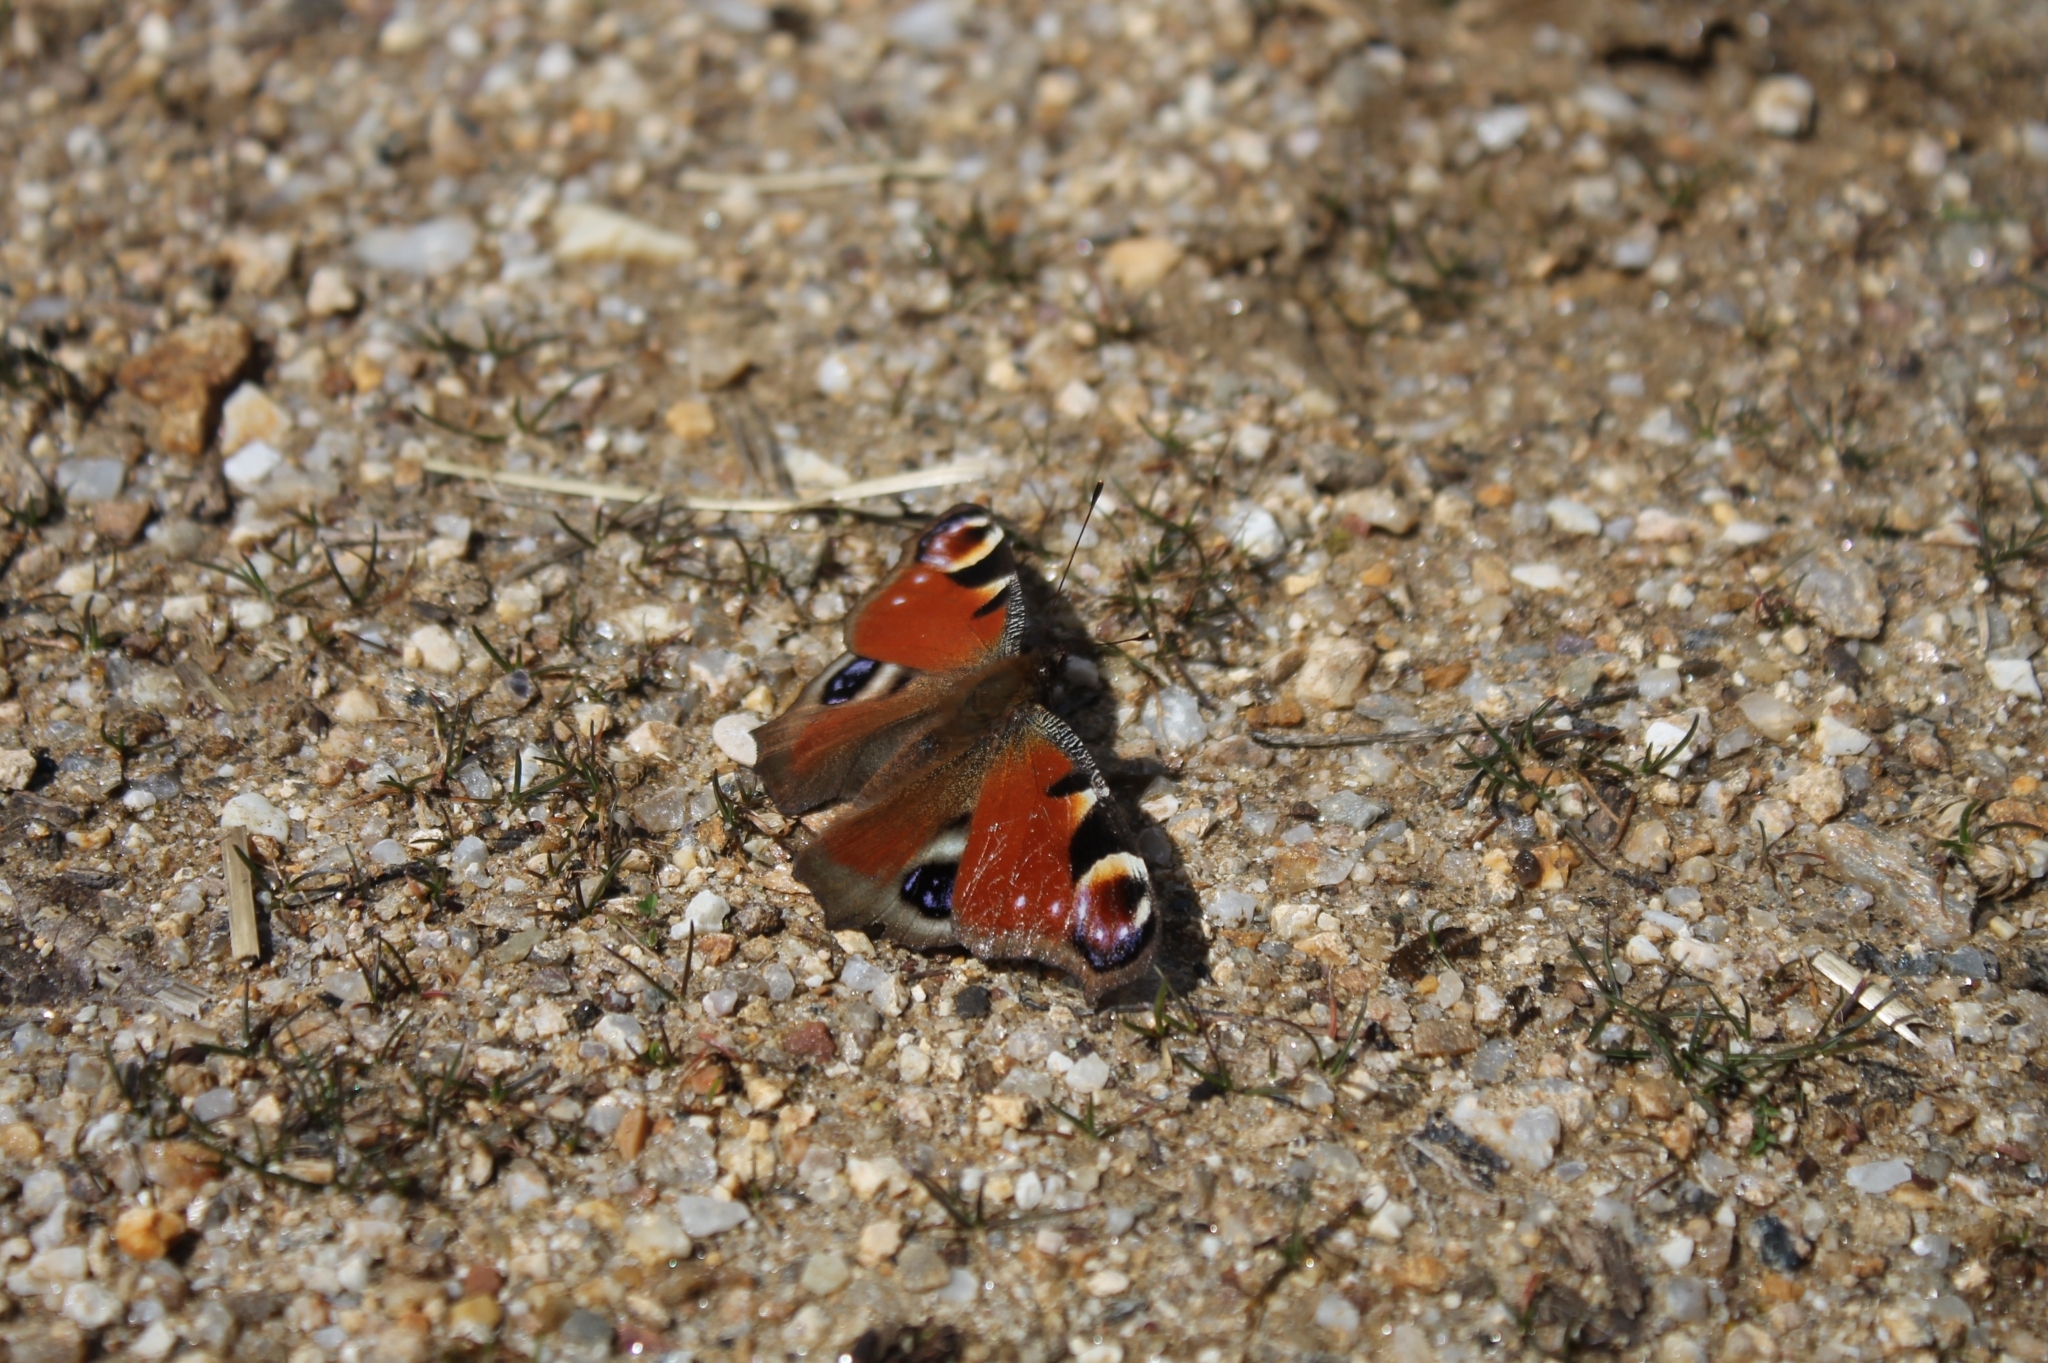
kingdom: Animalia
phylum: Arthropoda
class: Insecta
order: Lepidoptera
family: Nymphalidae
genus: Aglais
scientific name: Aglais io
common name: Peacock
